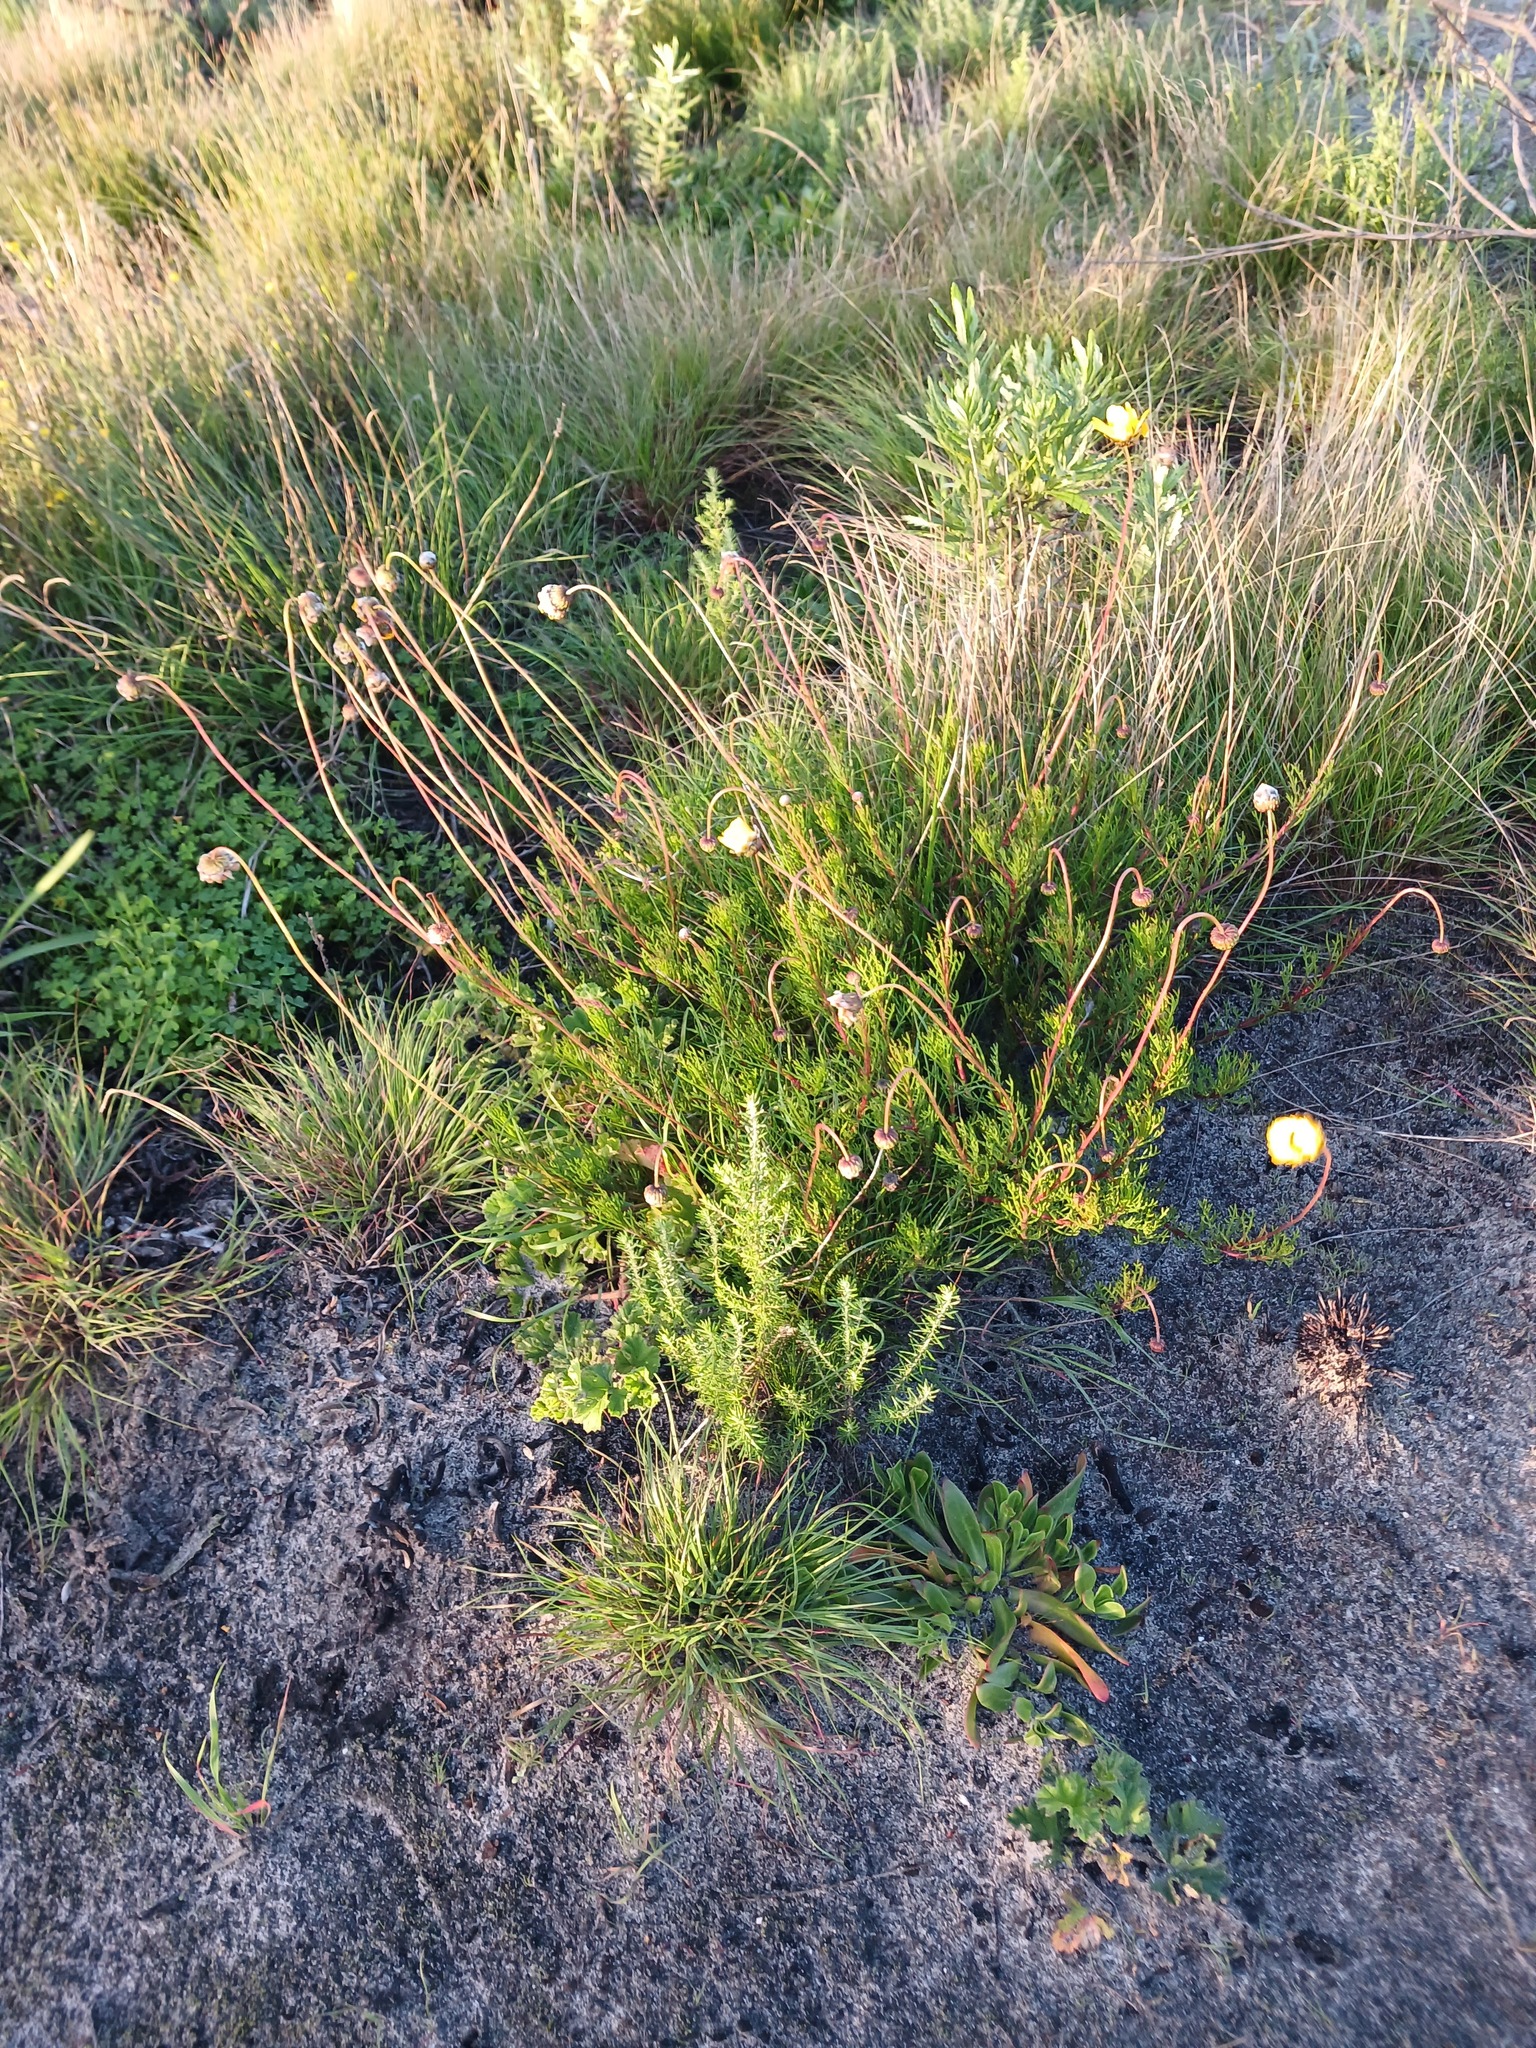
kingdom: Plantae
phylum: Tracheophyta
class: Magnoliopsida
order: Asterales
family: Asteraceae
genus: Ursinia
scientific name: Ursinia paleacea
